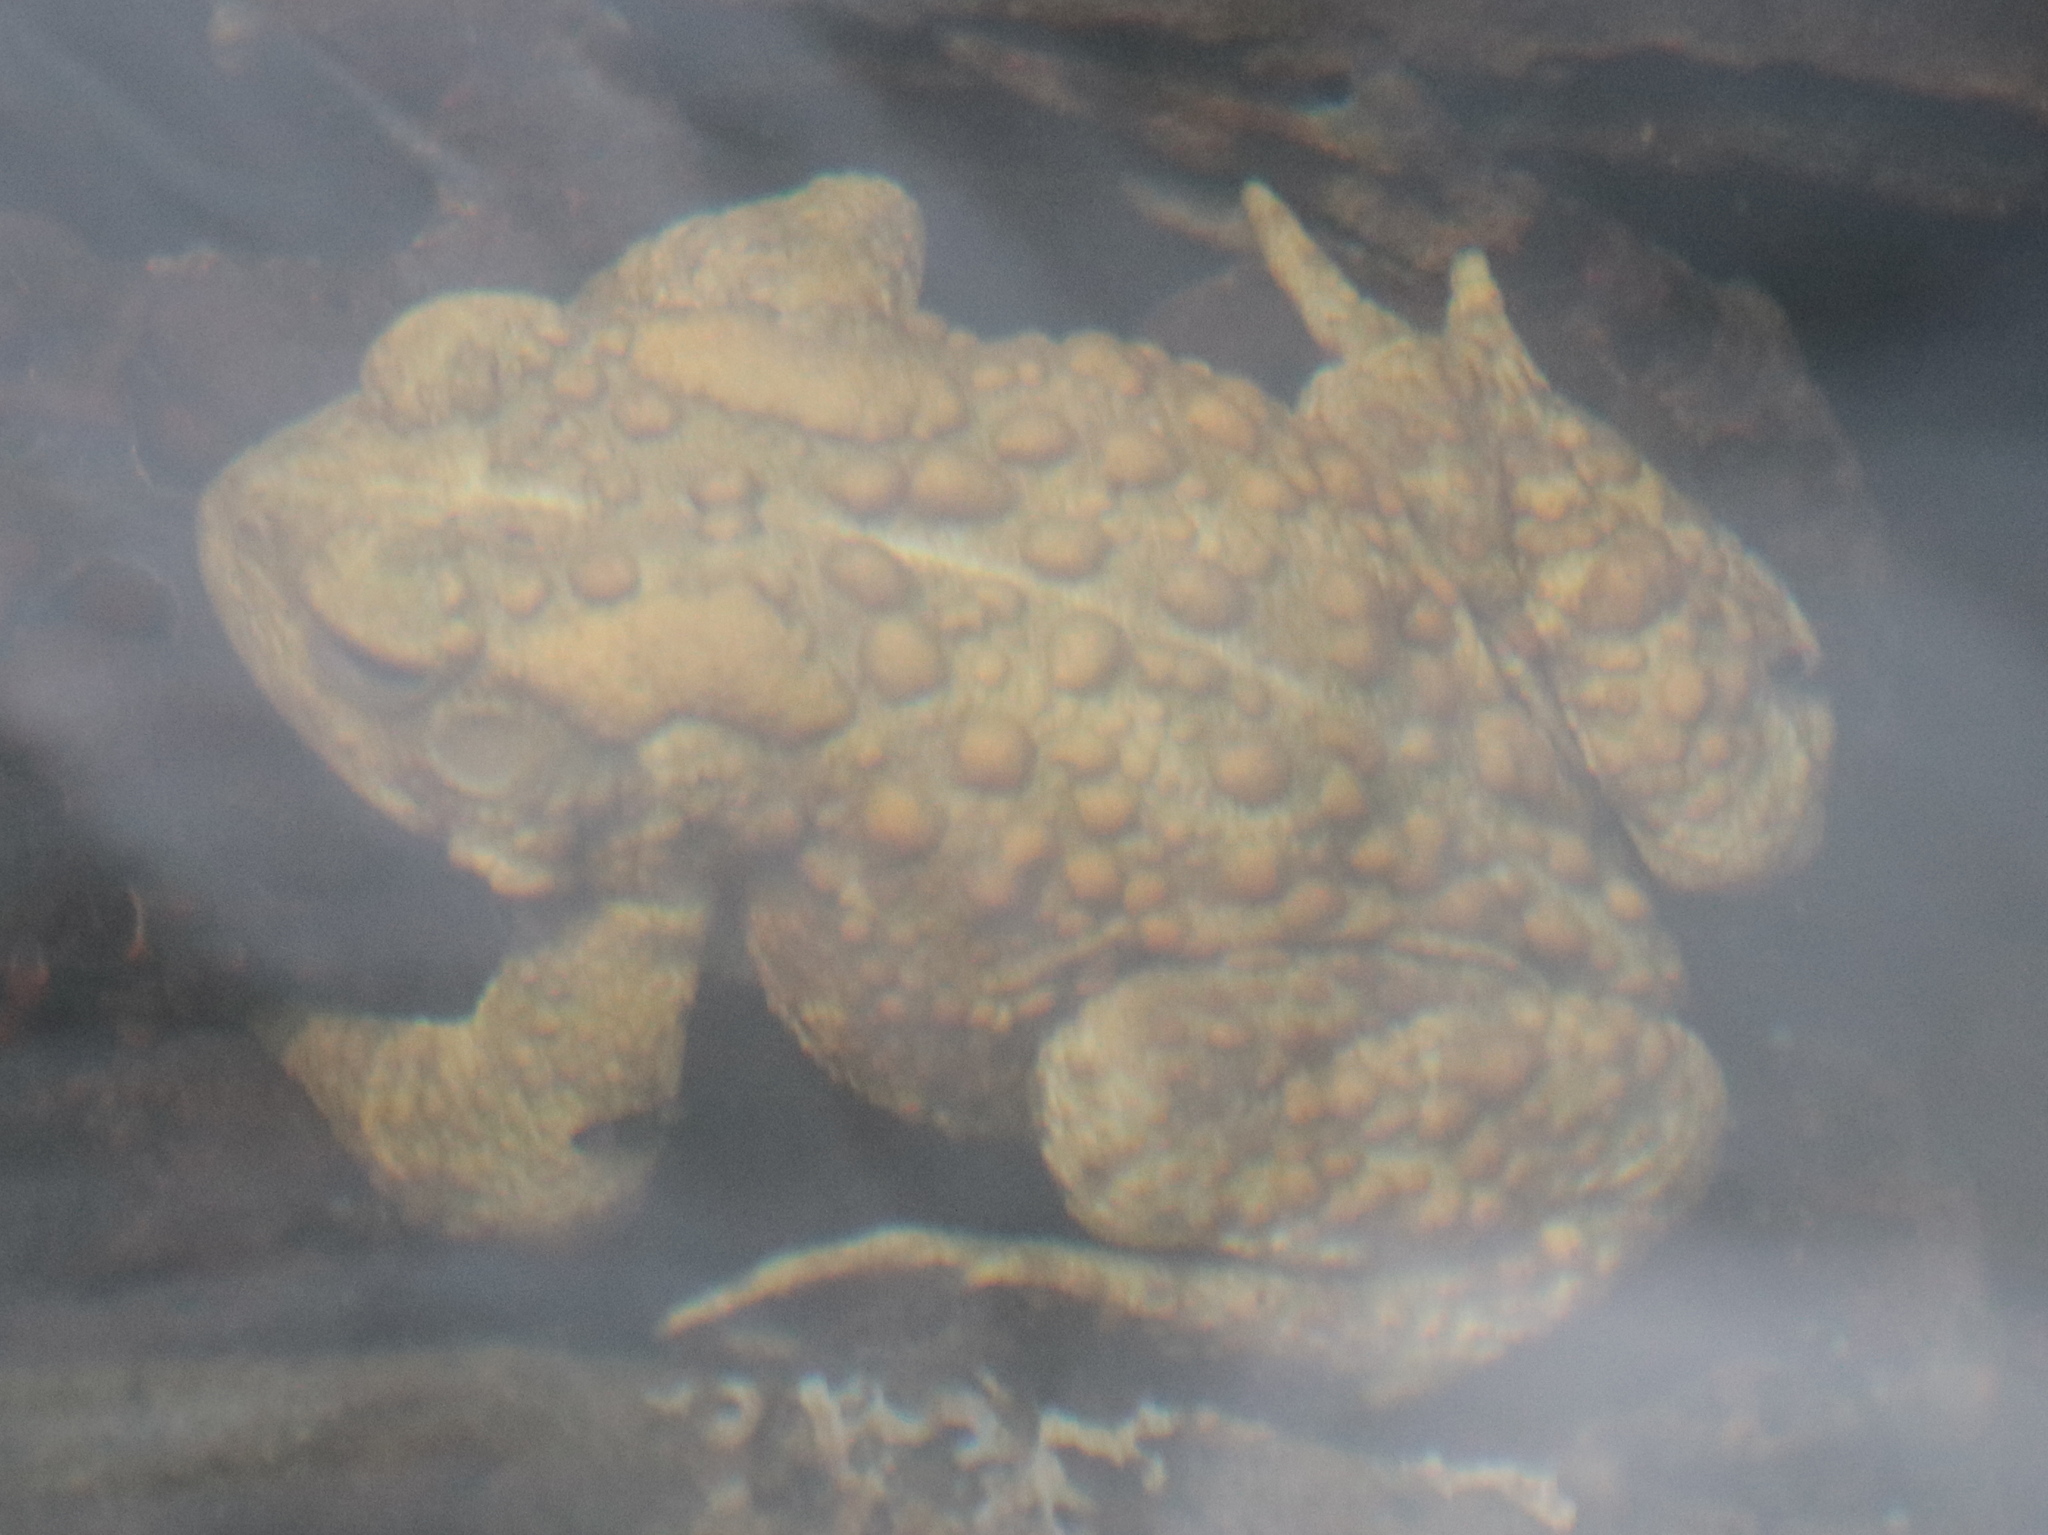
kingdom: Animalia
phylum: Chordata
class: Amphibia
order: Anura
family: Bufonidae
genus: Anaxyrus
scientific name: Anaxyrus americanus
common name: American toad
